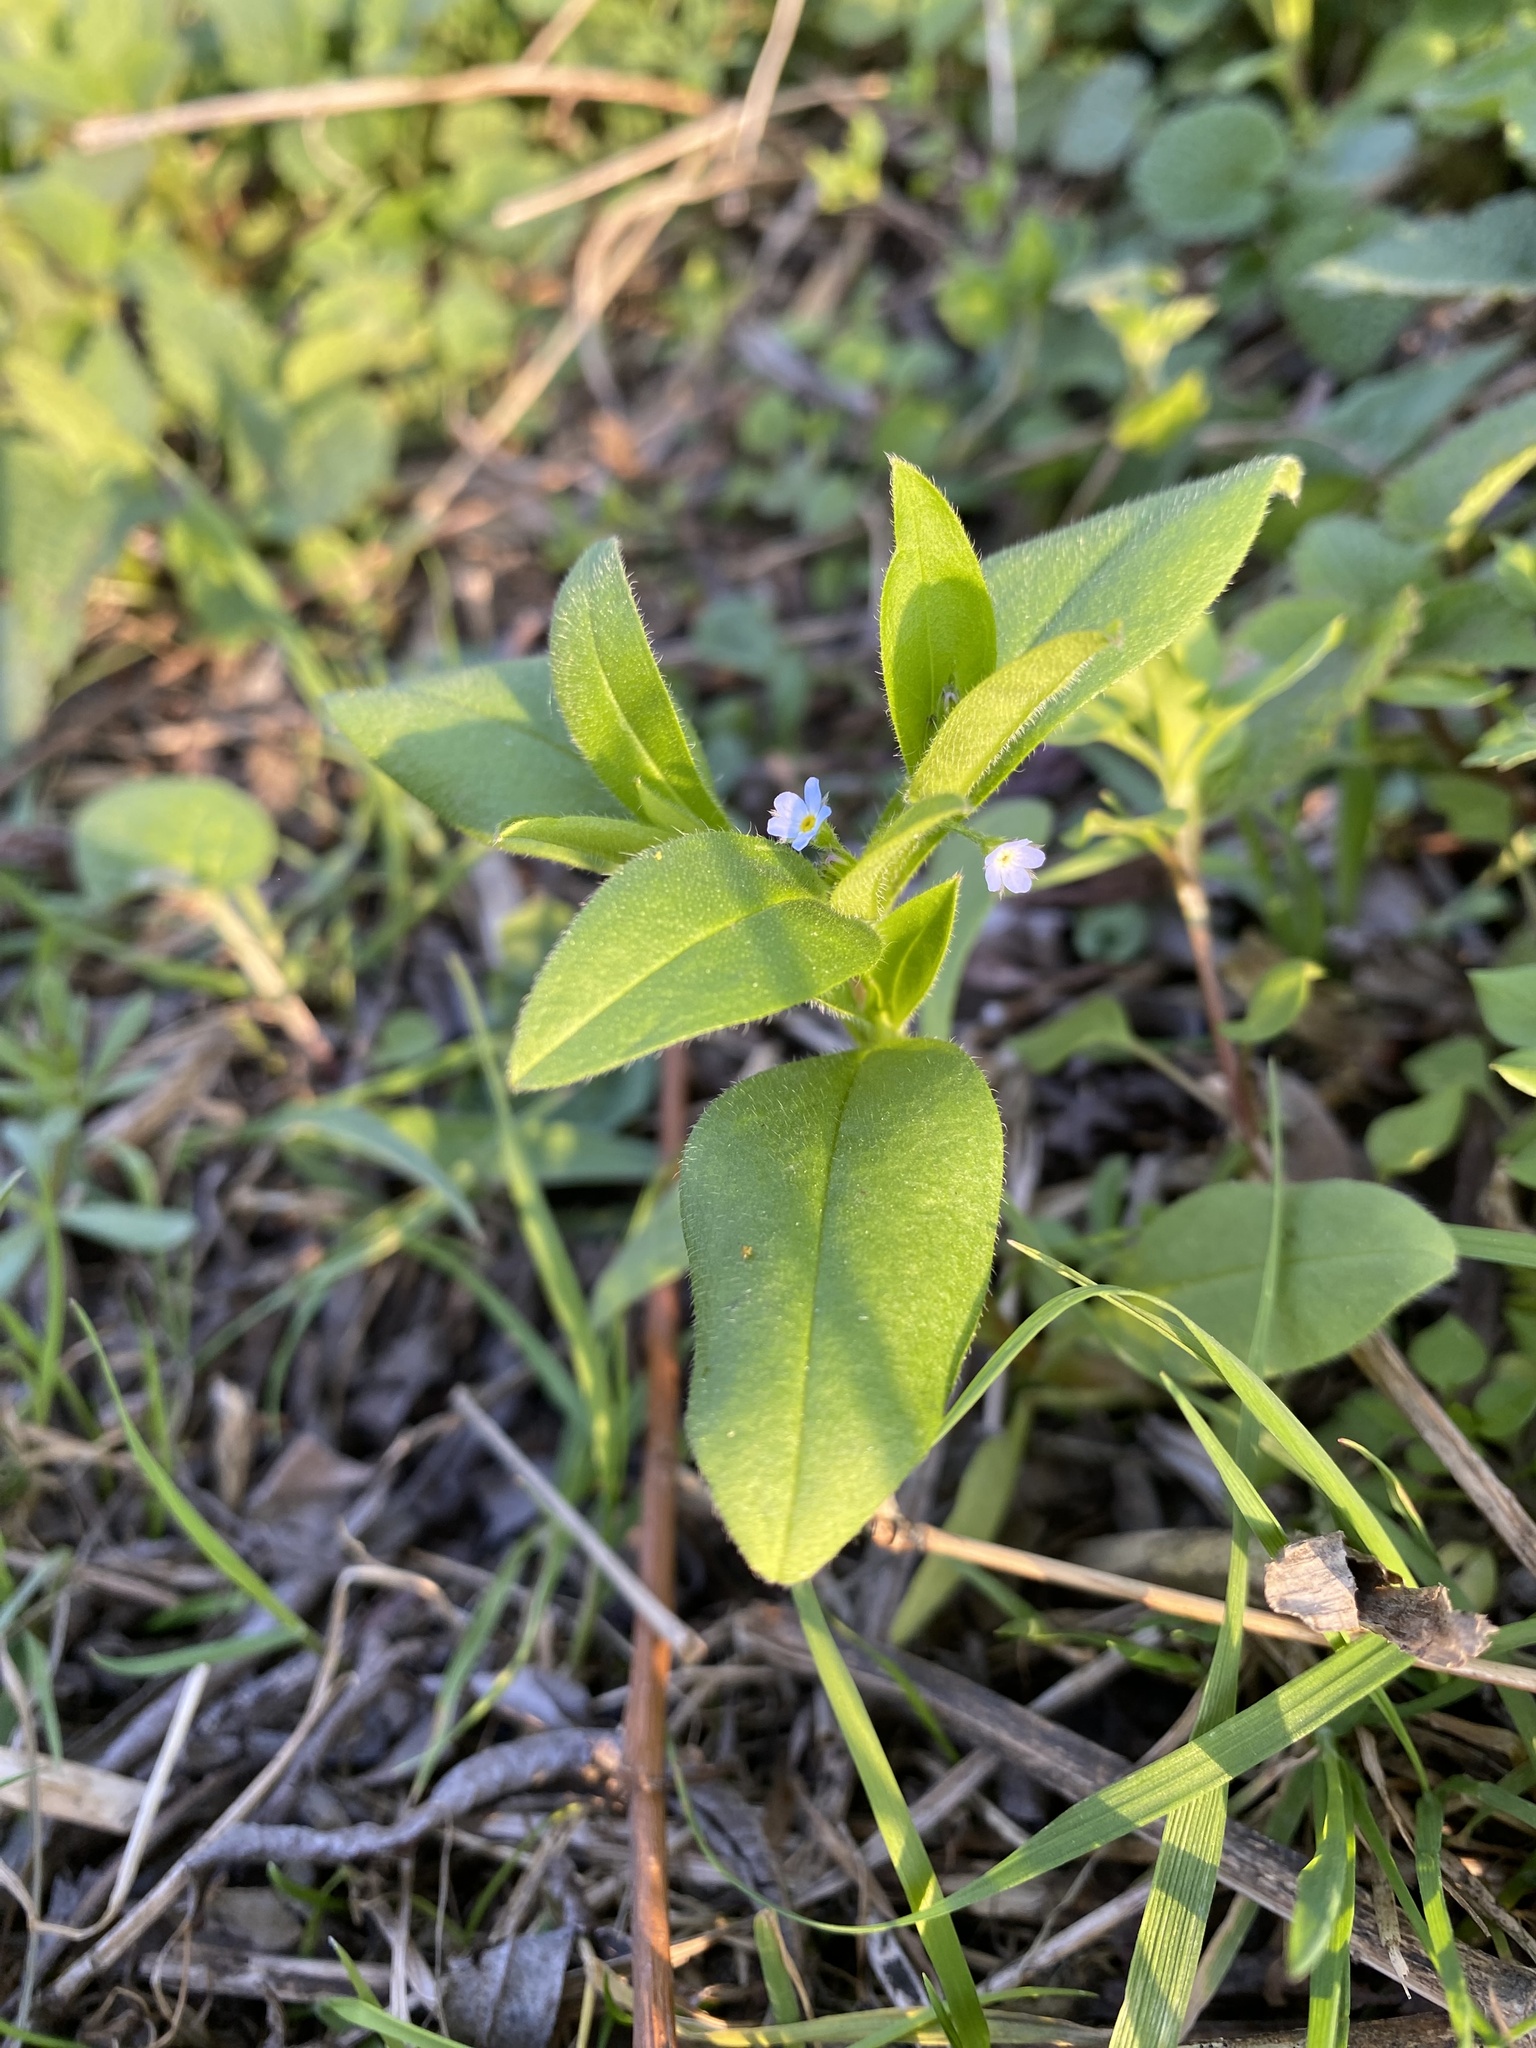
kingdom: Plantae
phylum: Tracheophyta
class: Magnoliopsida
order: Boraginales
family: Boraginaceae
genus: Myosotis
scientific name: Myosotis sparsiflora
